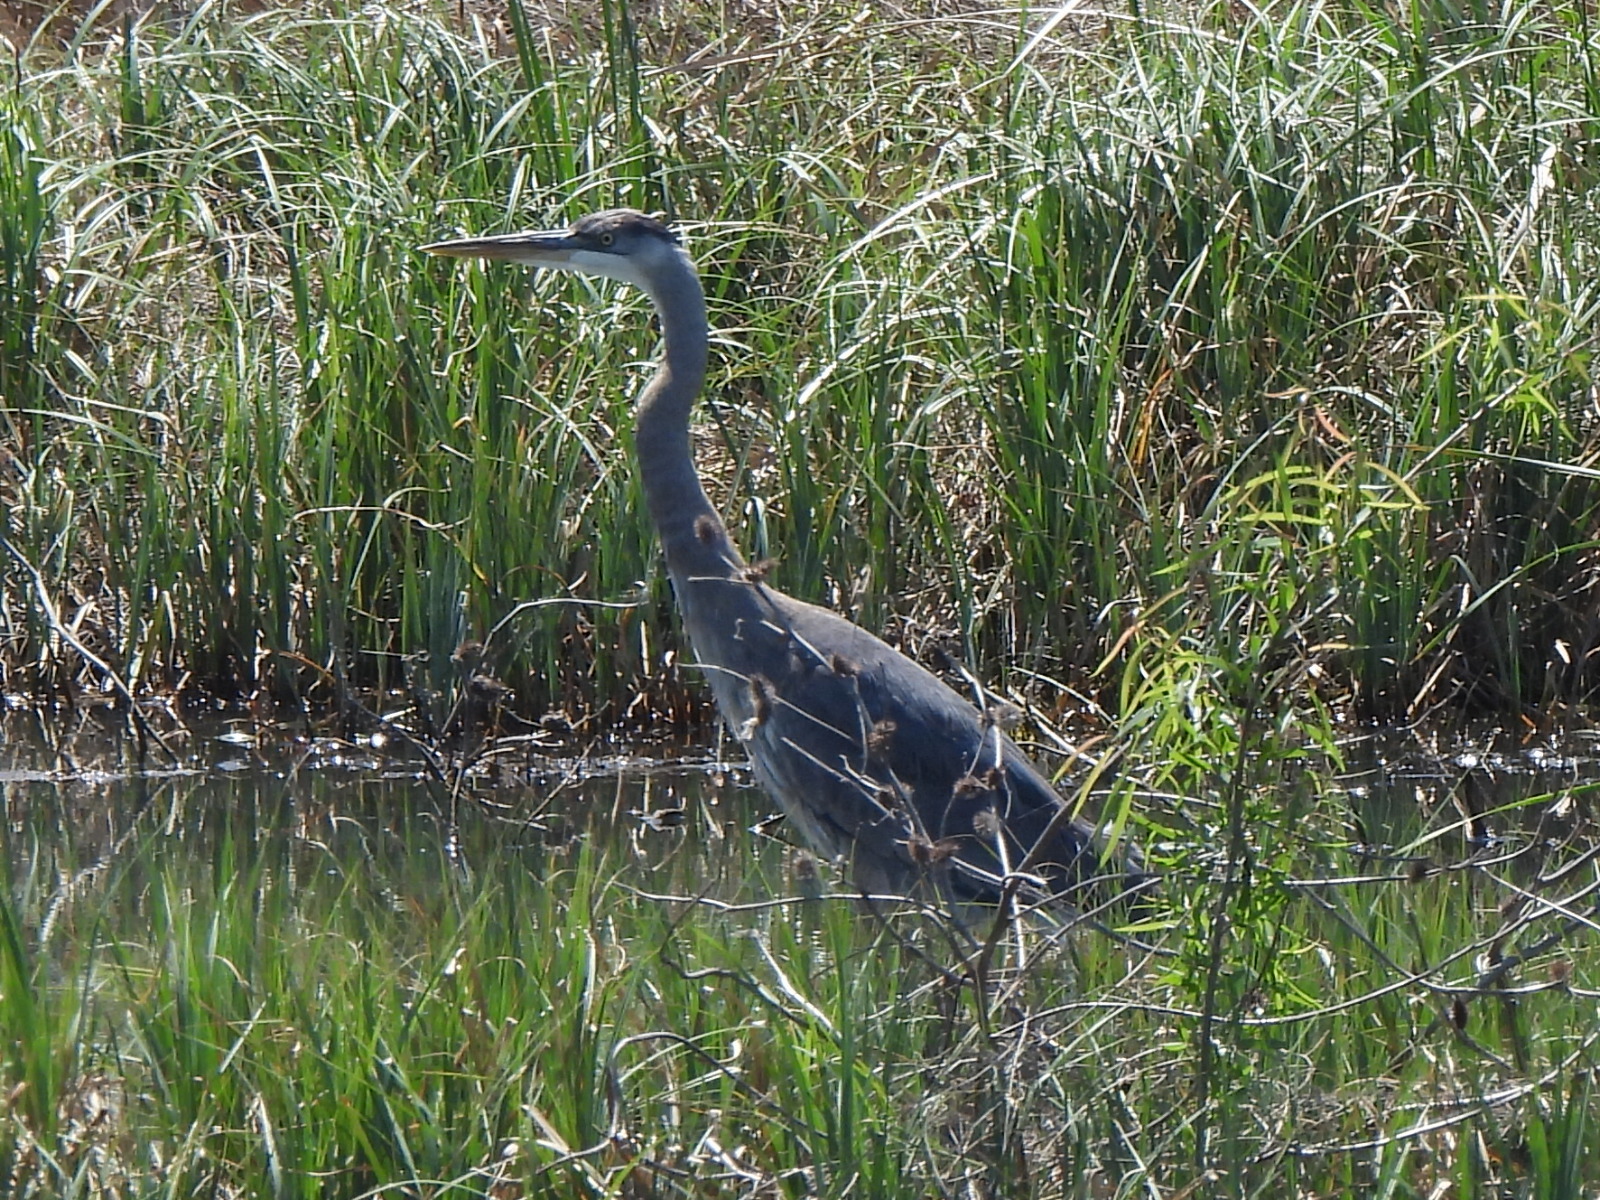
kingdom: Animalia
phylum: Chordata
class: Aves
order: Pelecaniformes
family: Ardeidae
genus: Ardea
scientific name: Ardea herodias
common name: Great blue heron
